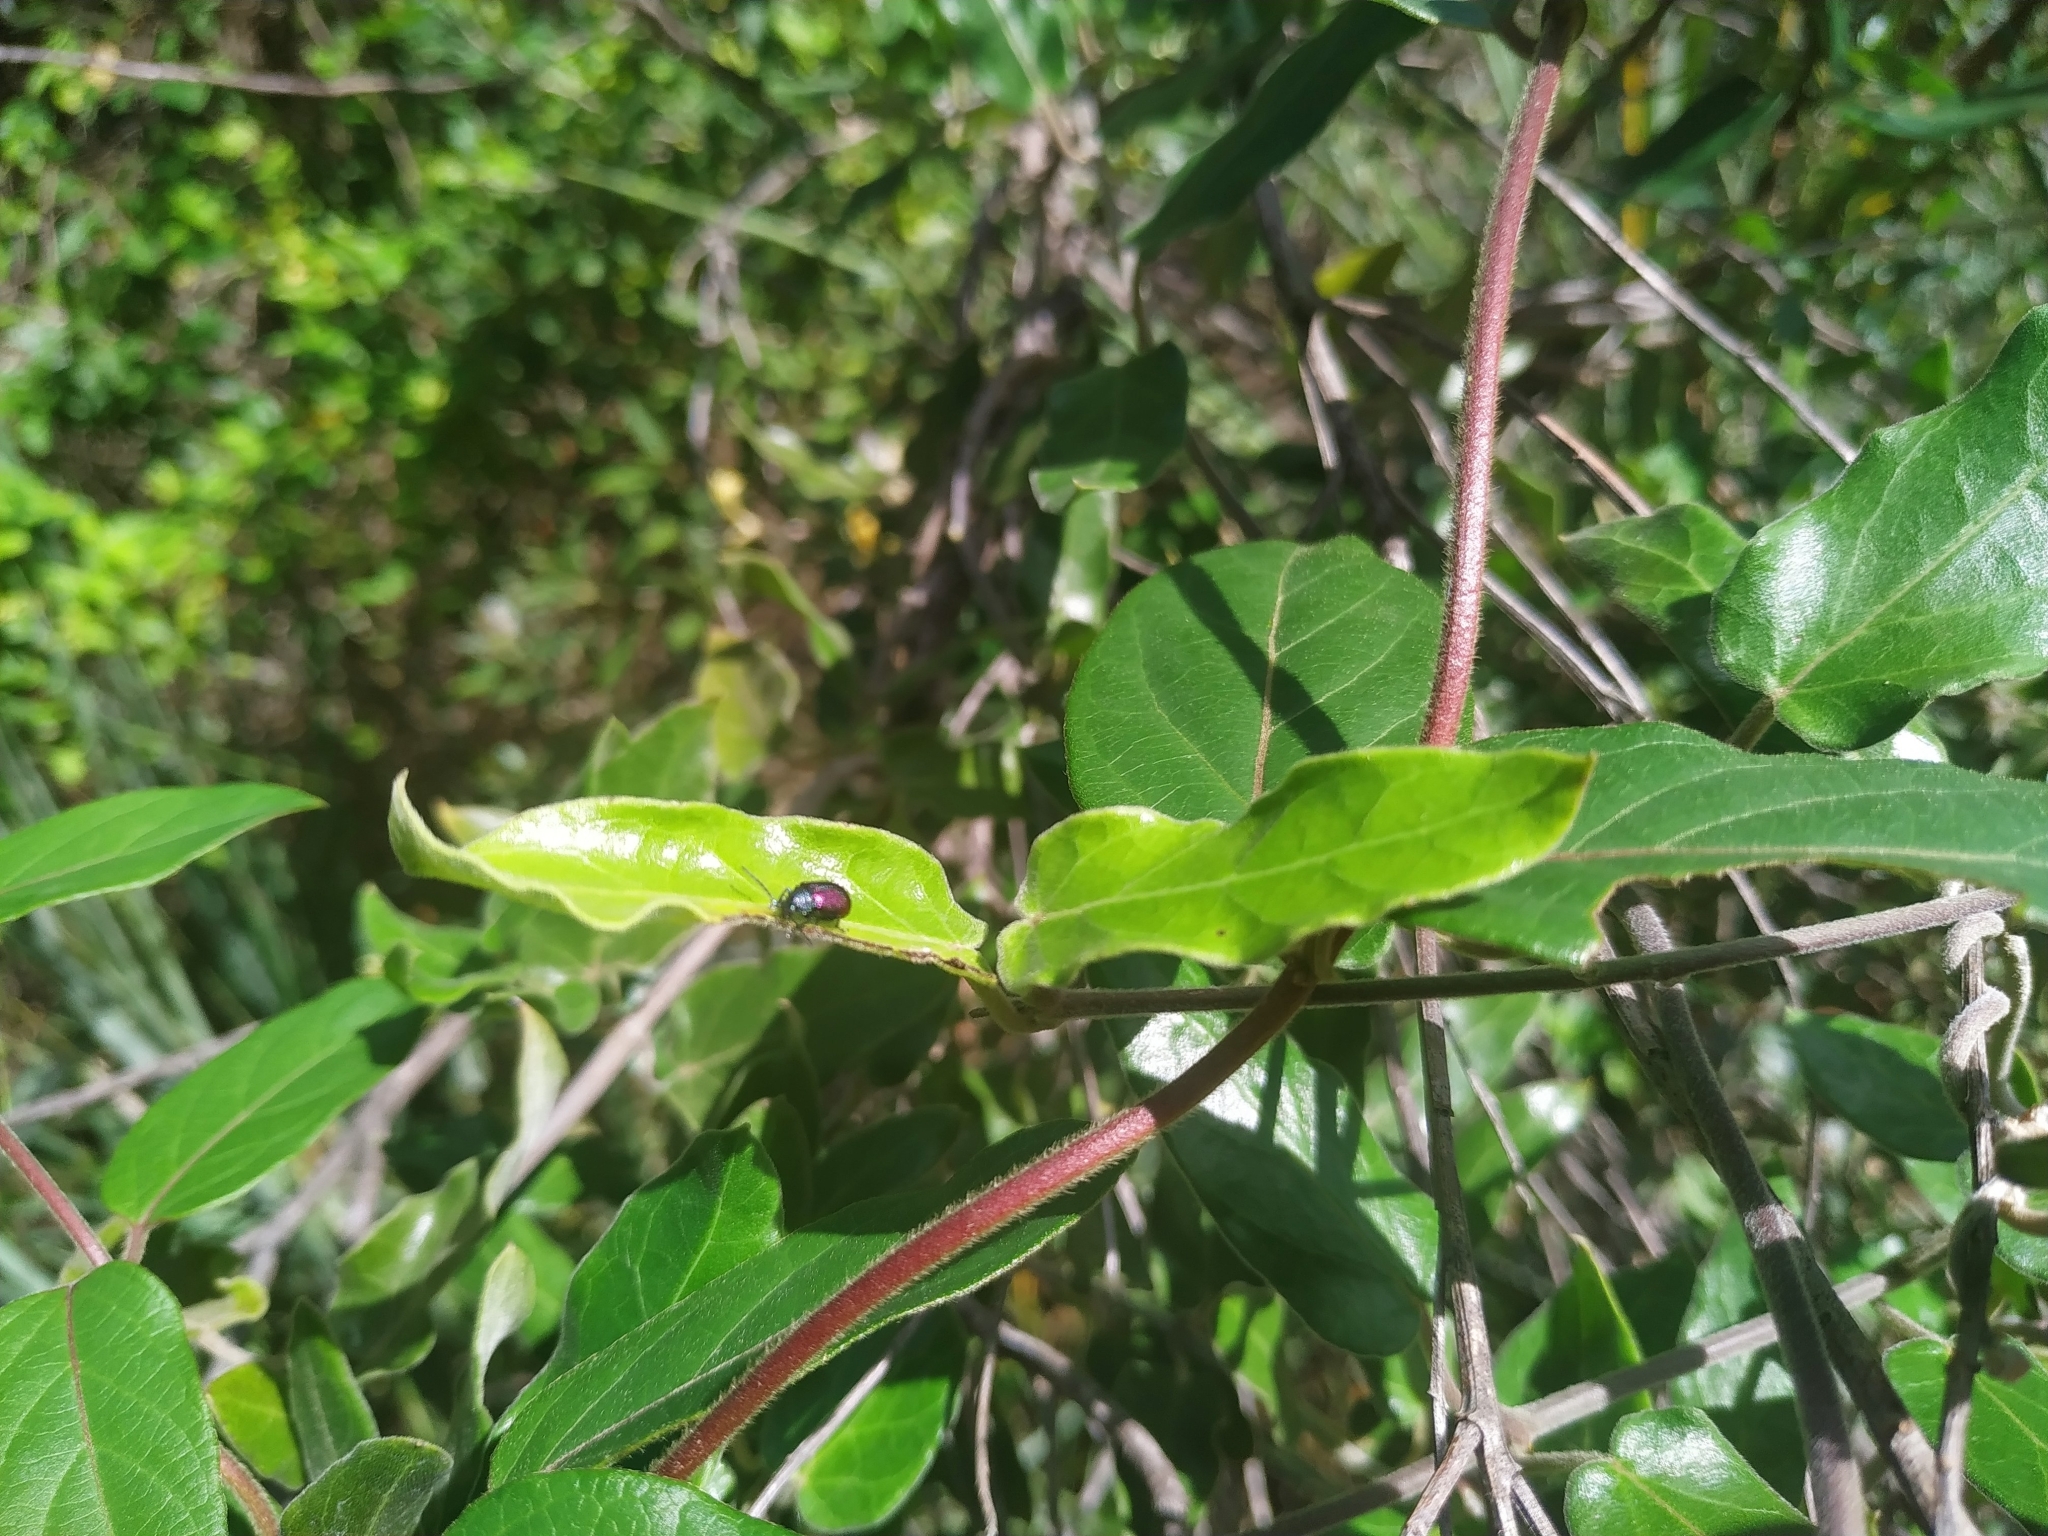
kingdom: Plantae
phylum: Tracheophyta
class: Magnoliopsida
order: Dipsacales
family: Caprifoliaceae
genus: Lonicera
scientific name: Lonicera japonica
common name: Japanese honeysuckle
